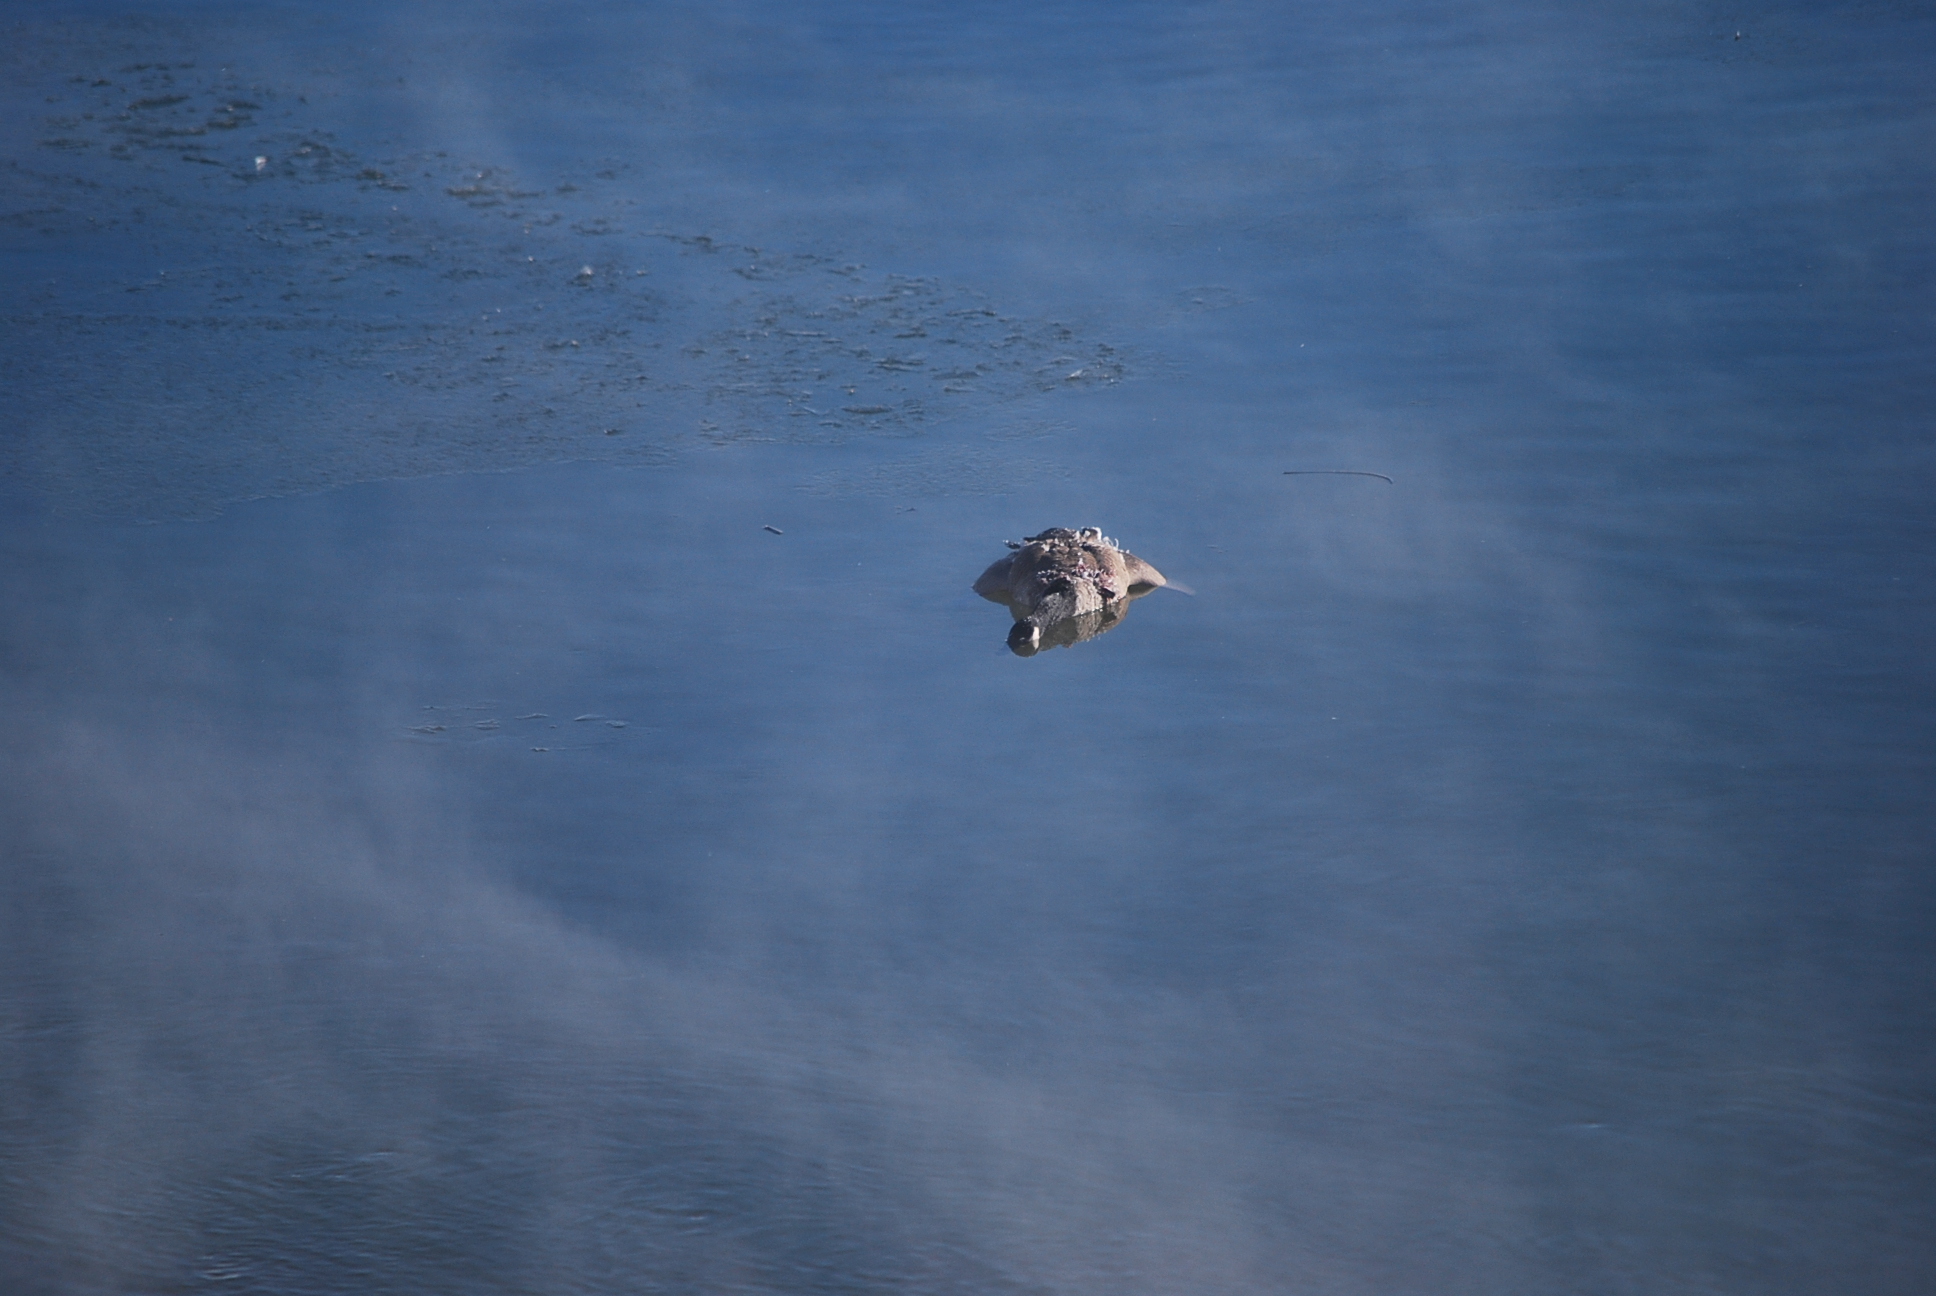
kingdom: Animalia
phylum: Chordata
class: Aves
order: Anseriformes
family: Anatidae
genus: Branta
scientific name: Branta canadensis
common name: Canada goose
